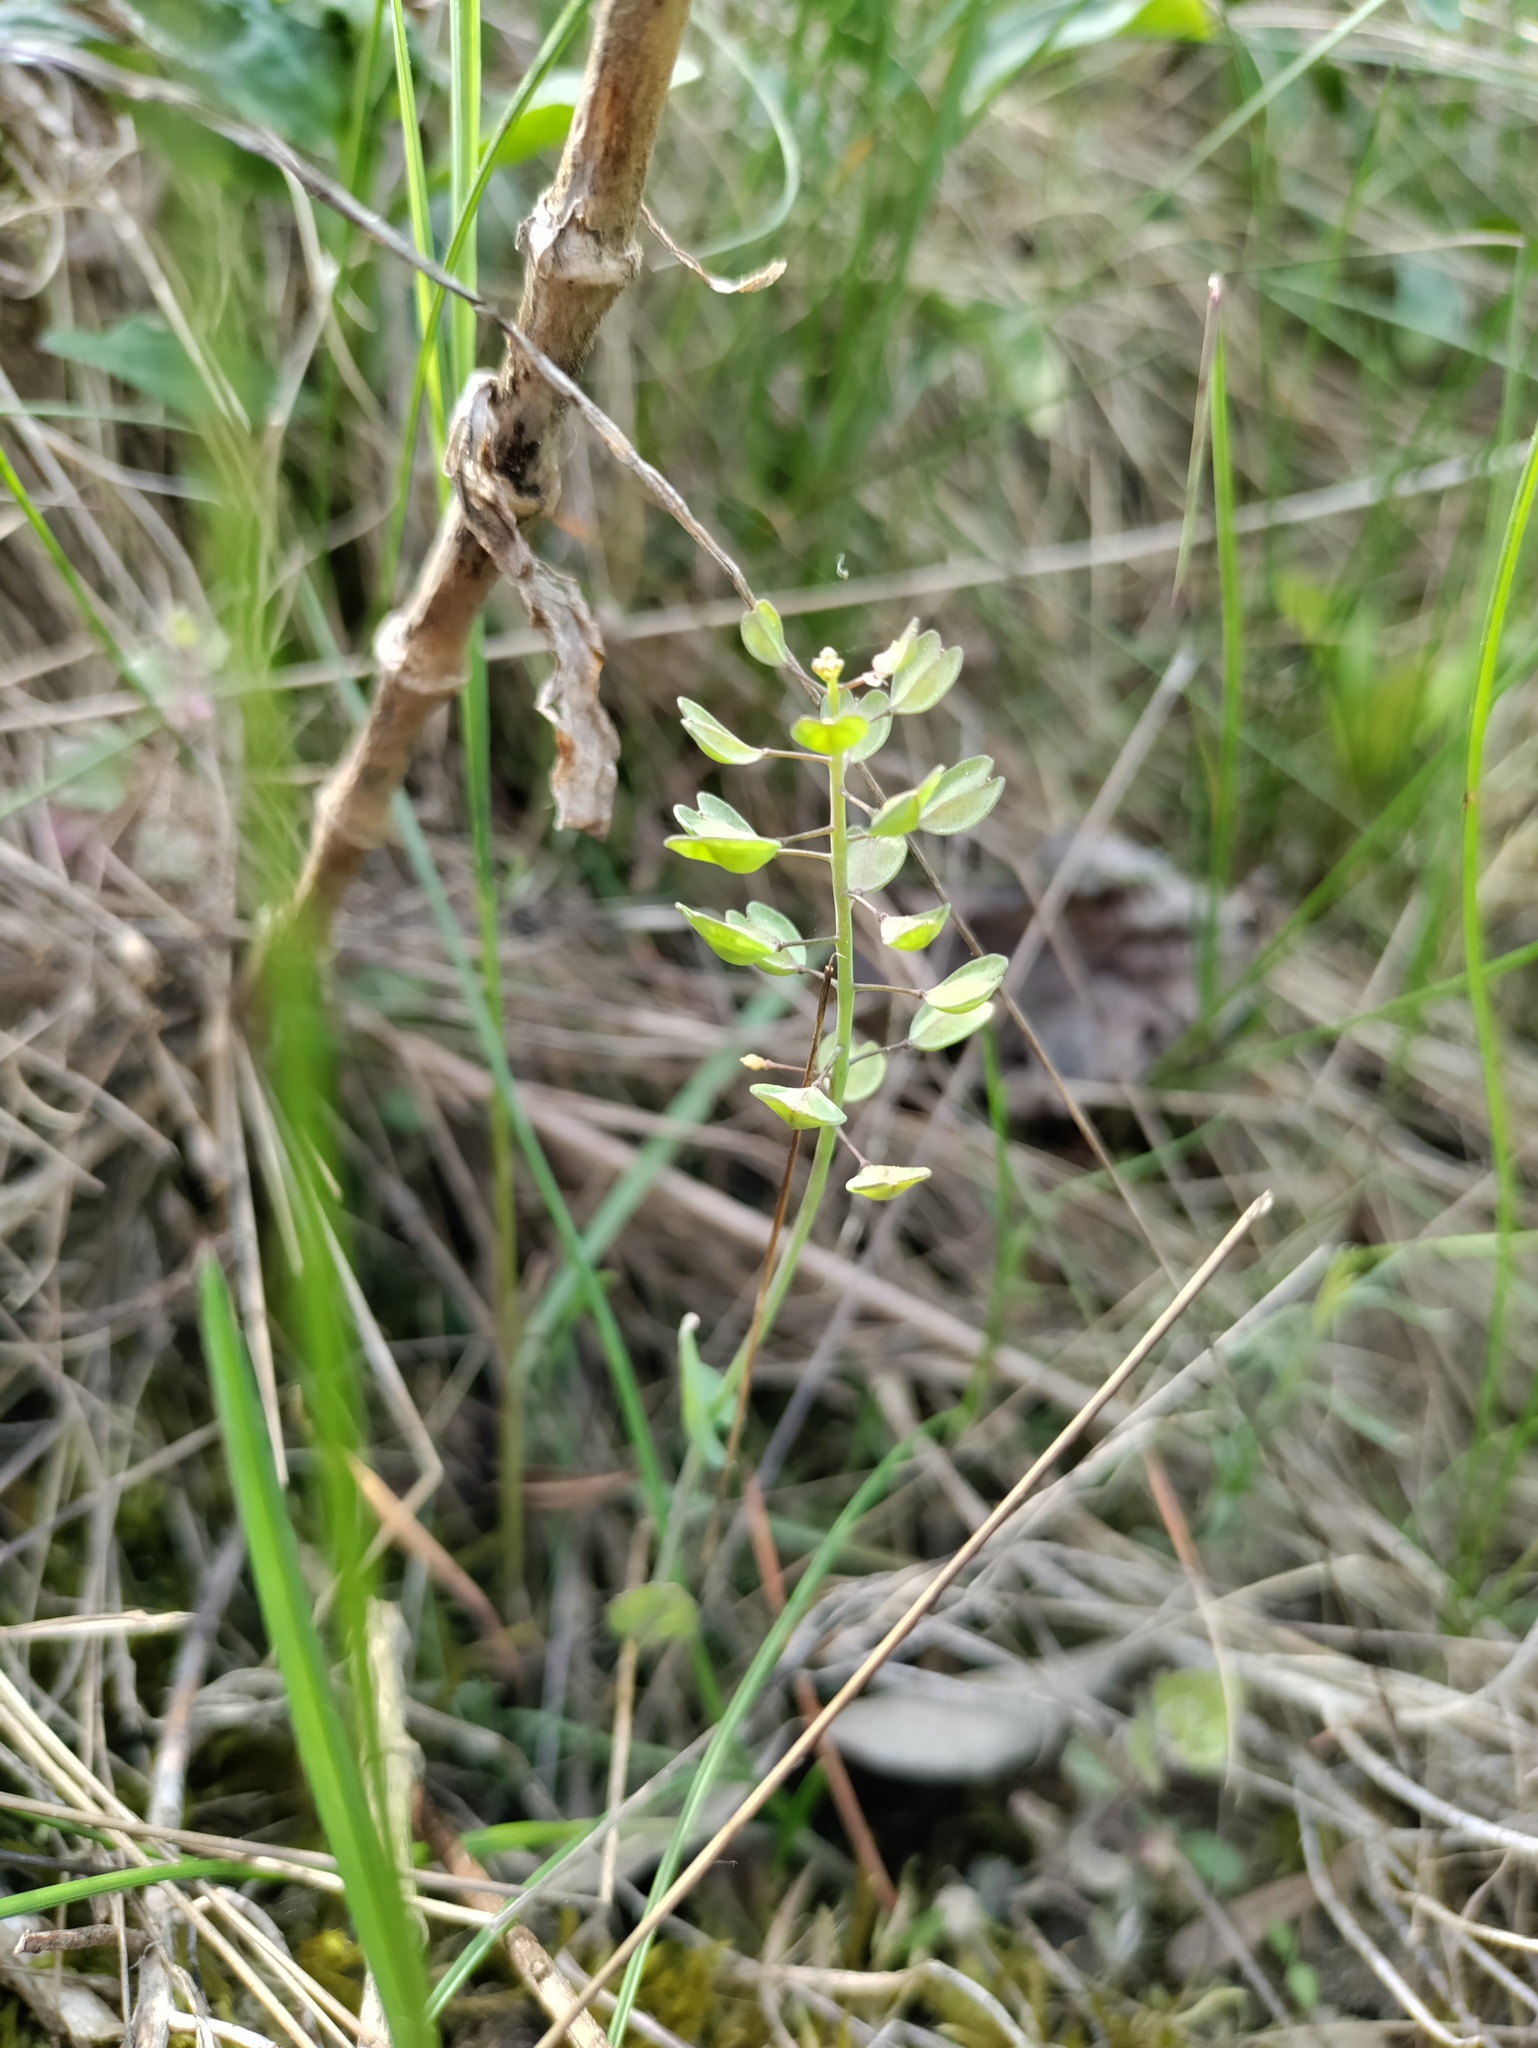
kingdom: Plantae
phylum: Tracheophyta
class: Magnoliopsida
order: Brassicales
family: Brassicaceae
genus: Noccaea
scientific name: Noccaea perfoliata
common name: Perfoliate pennycress
